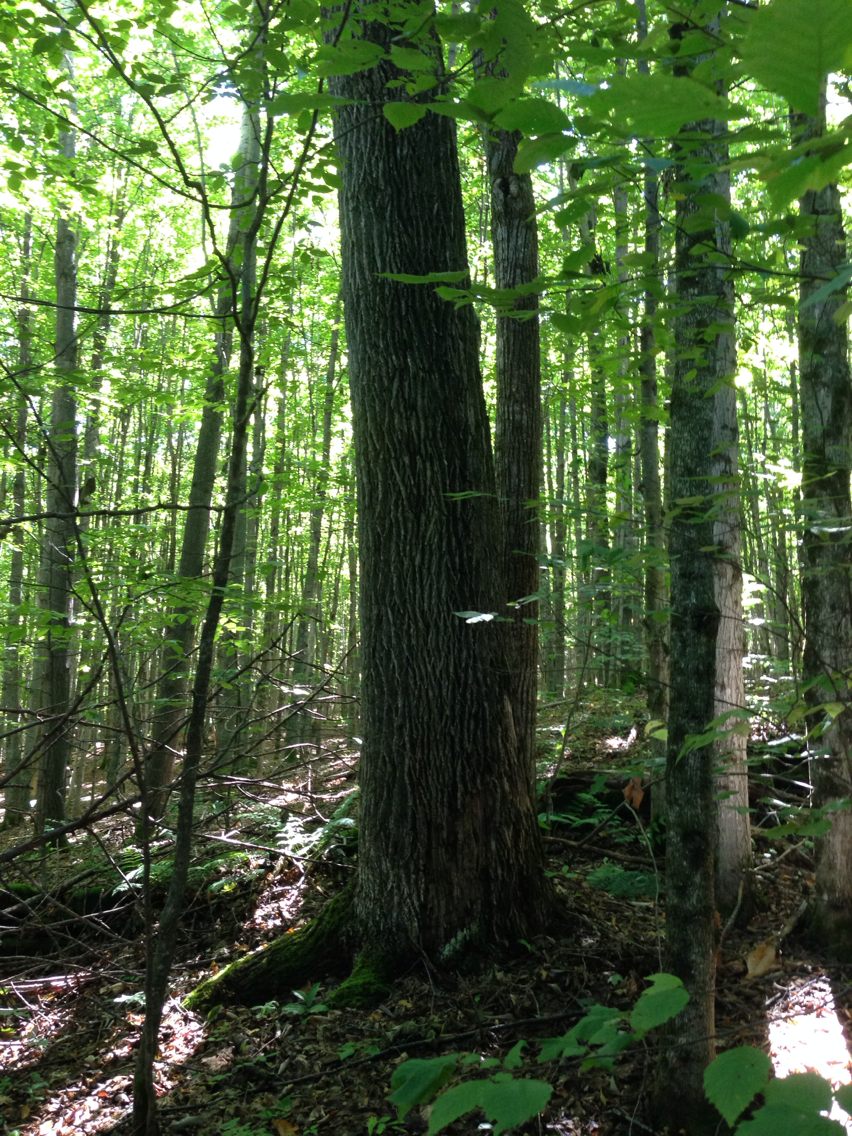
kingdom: Plantae
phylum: Tracheophyta
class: Magnoliopsida
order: Lamiales
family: Oleaceae
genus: Fraxinus
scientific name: Fraxinus americana
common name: White ash
